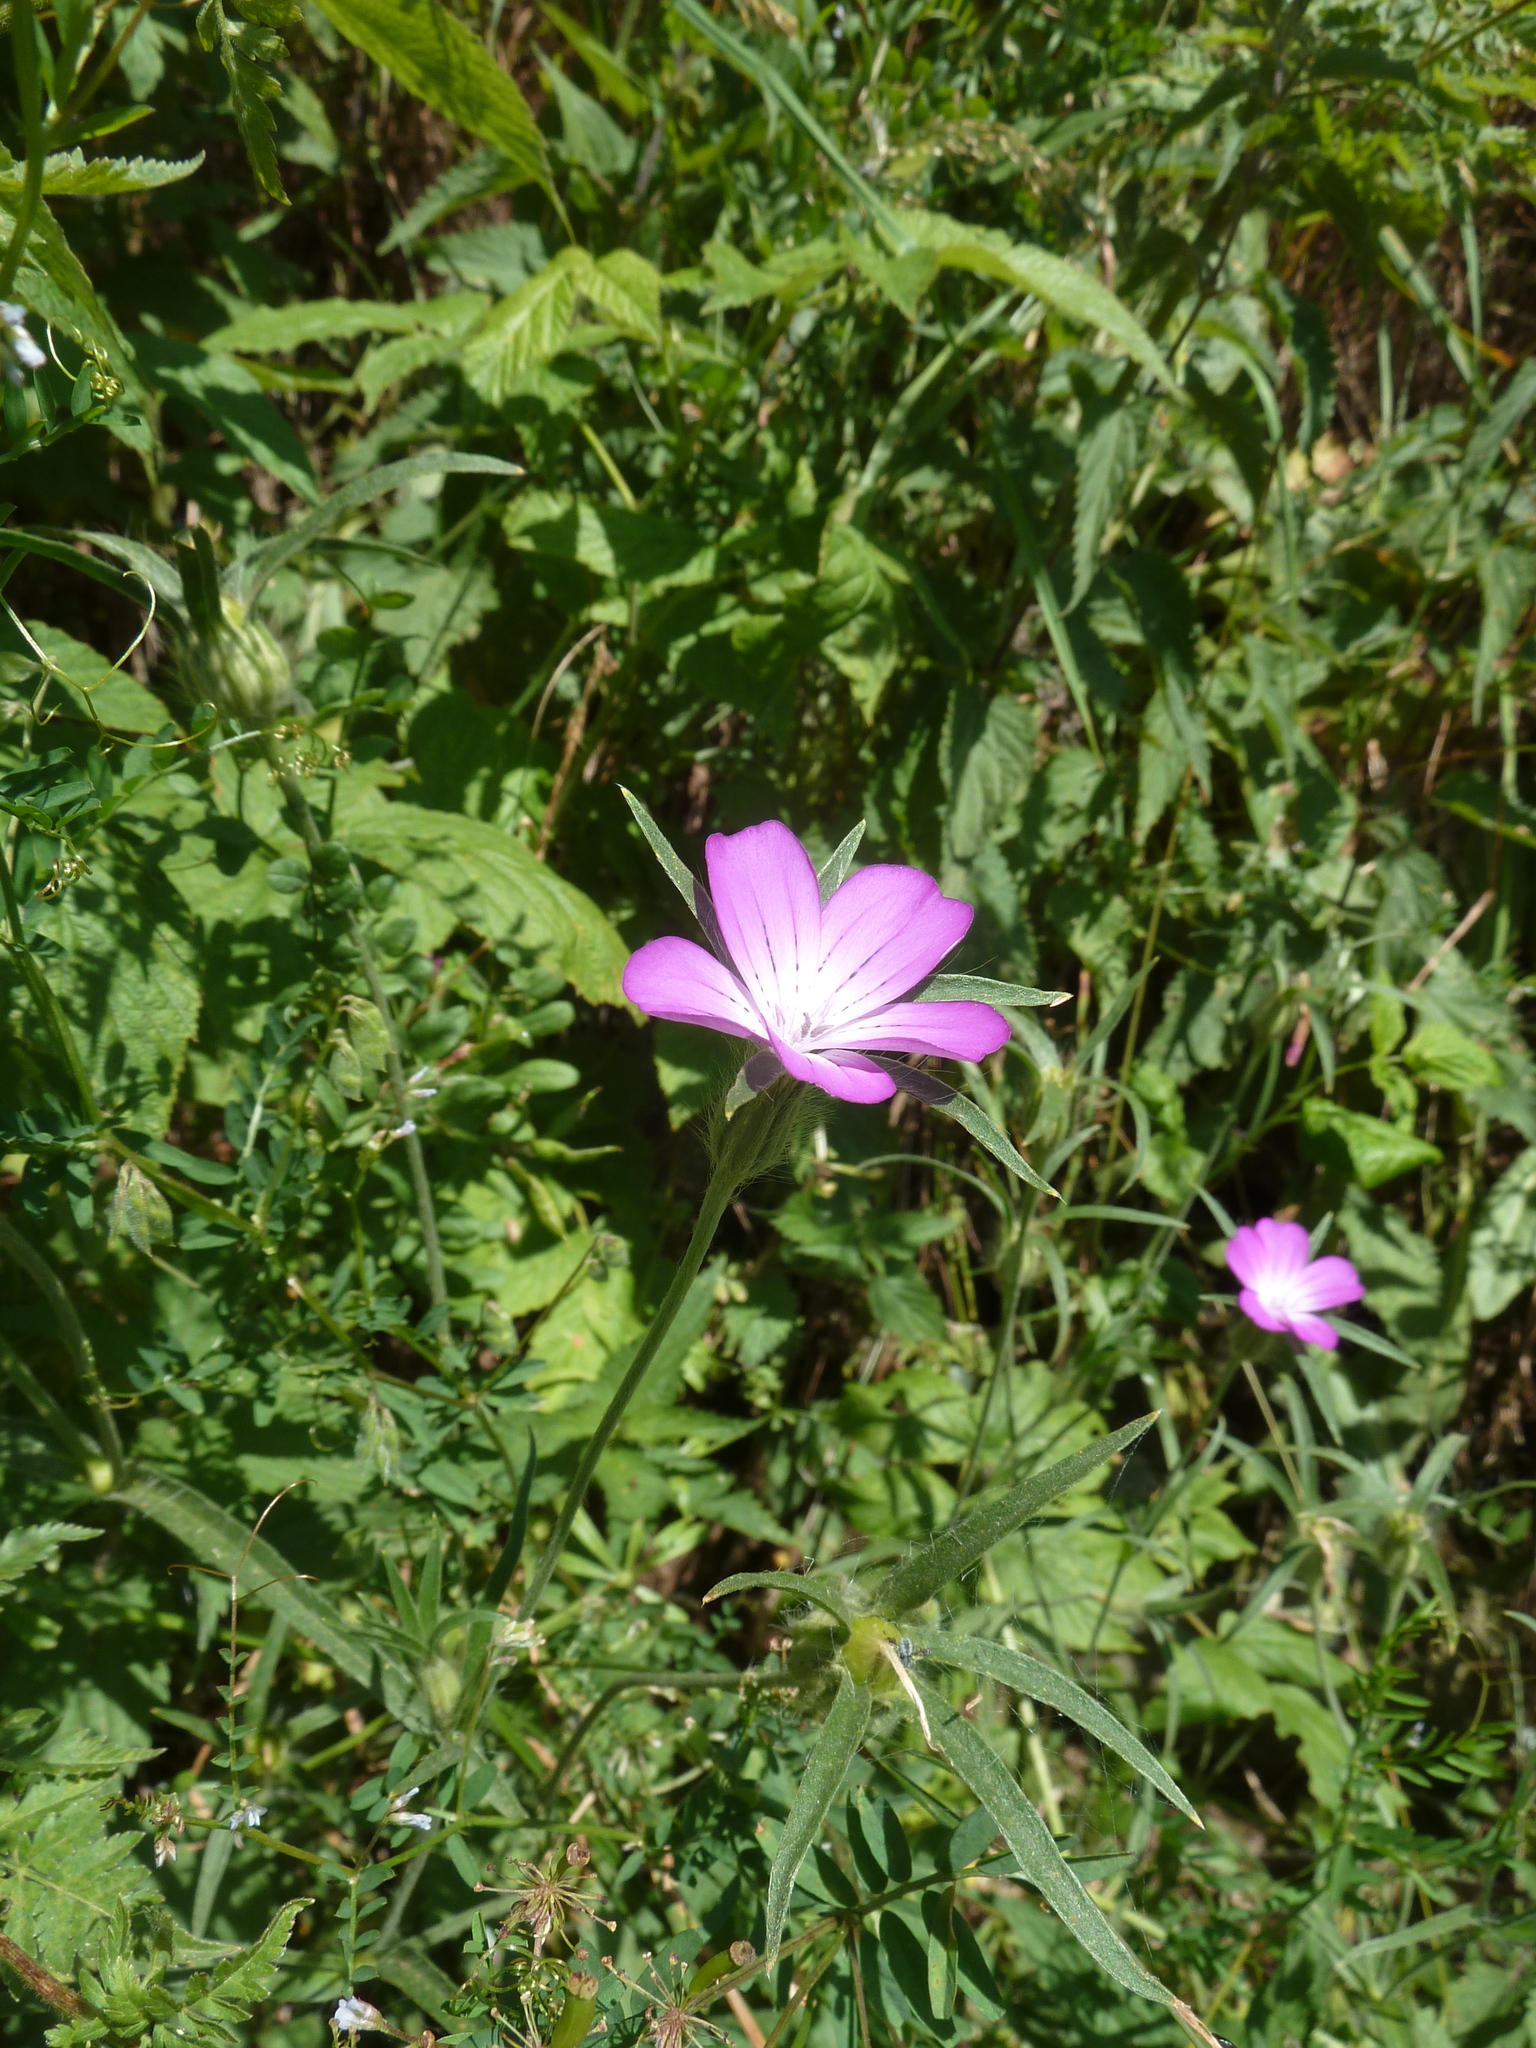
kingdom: Plantae
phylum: Tracheophyta
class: Magnoliopsida
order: Caryophyllales
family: Caryophyllaceae
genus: Agrostemma
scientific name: Agrostemma githago
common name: Common corncockle
